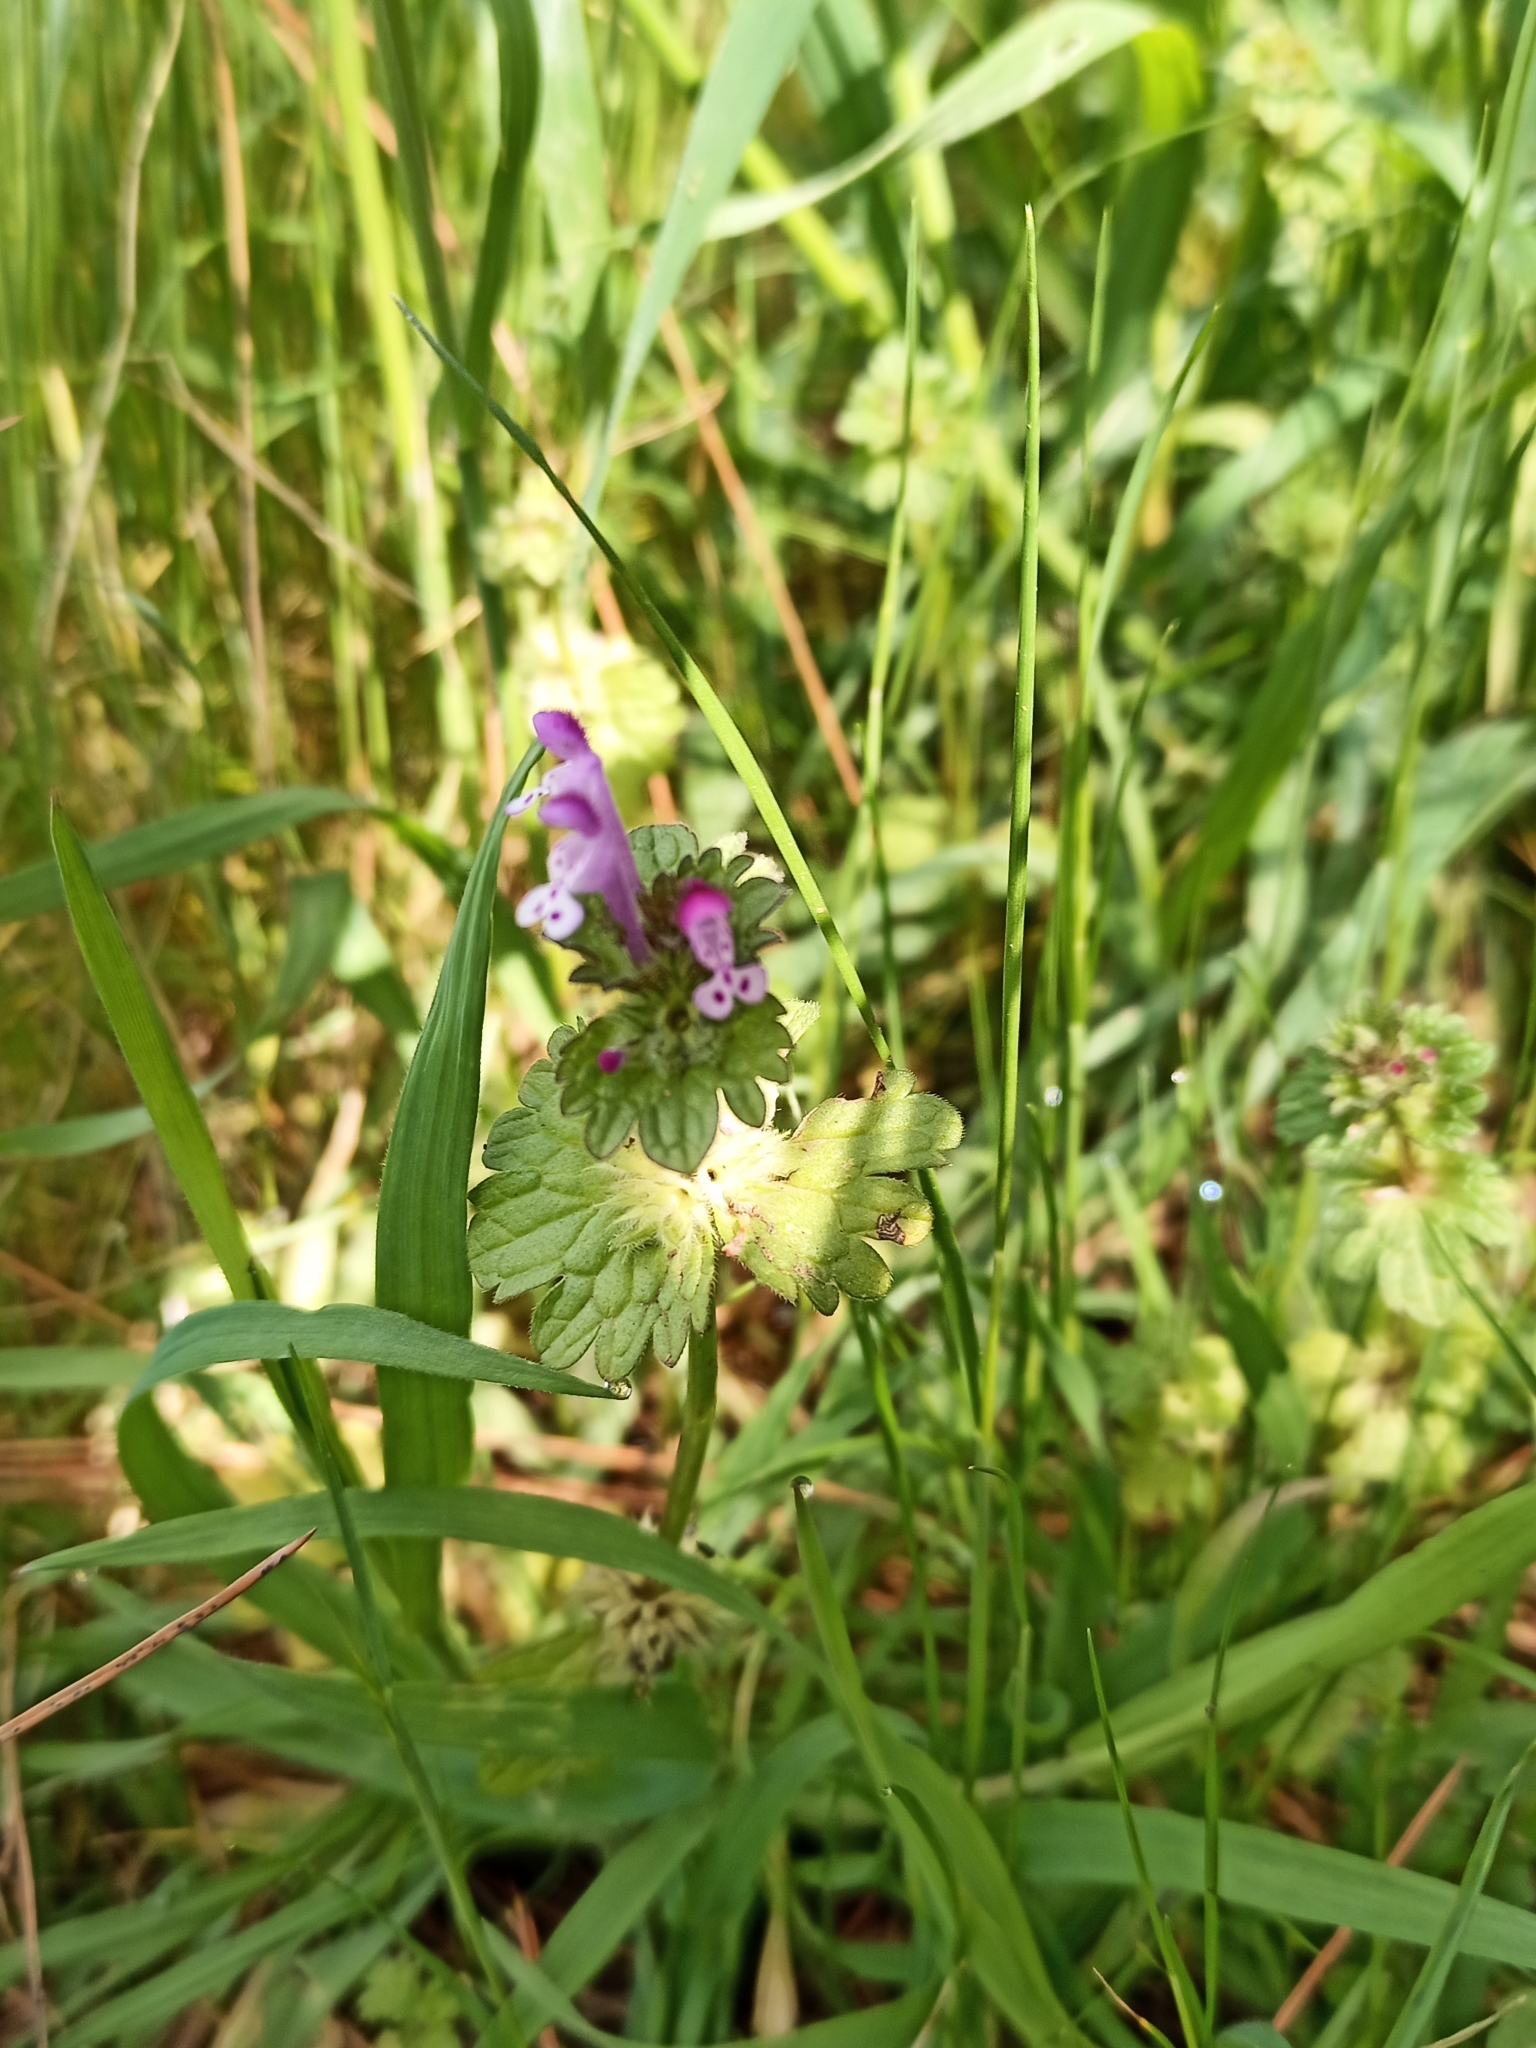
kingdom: Plantae
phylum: Tracheophyta
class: Magnoliopsida
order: Lamiales
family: Lamiaceae
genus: Lamium
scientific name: Lamium amplexicaule
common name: Henbit dead-nettle
